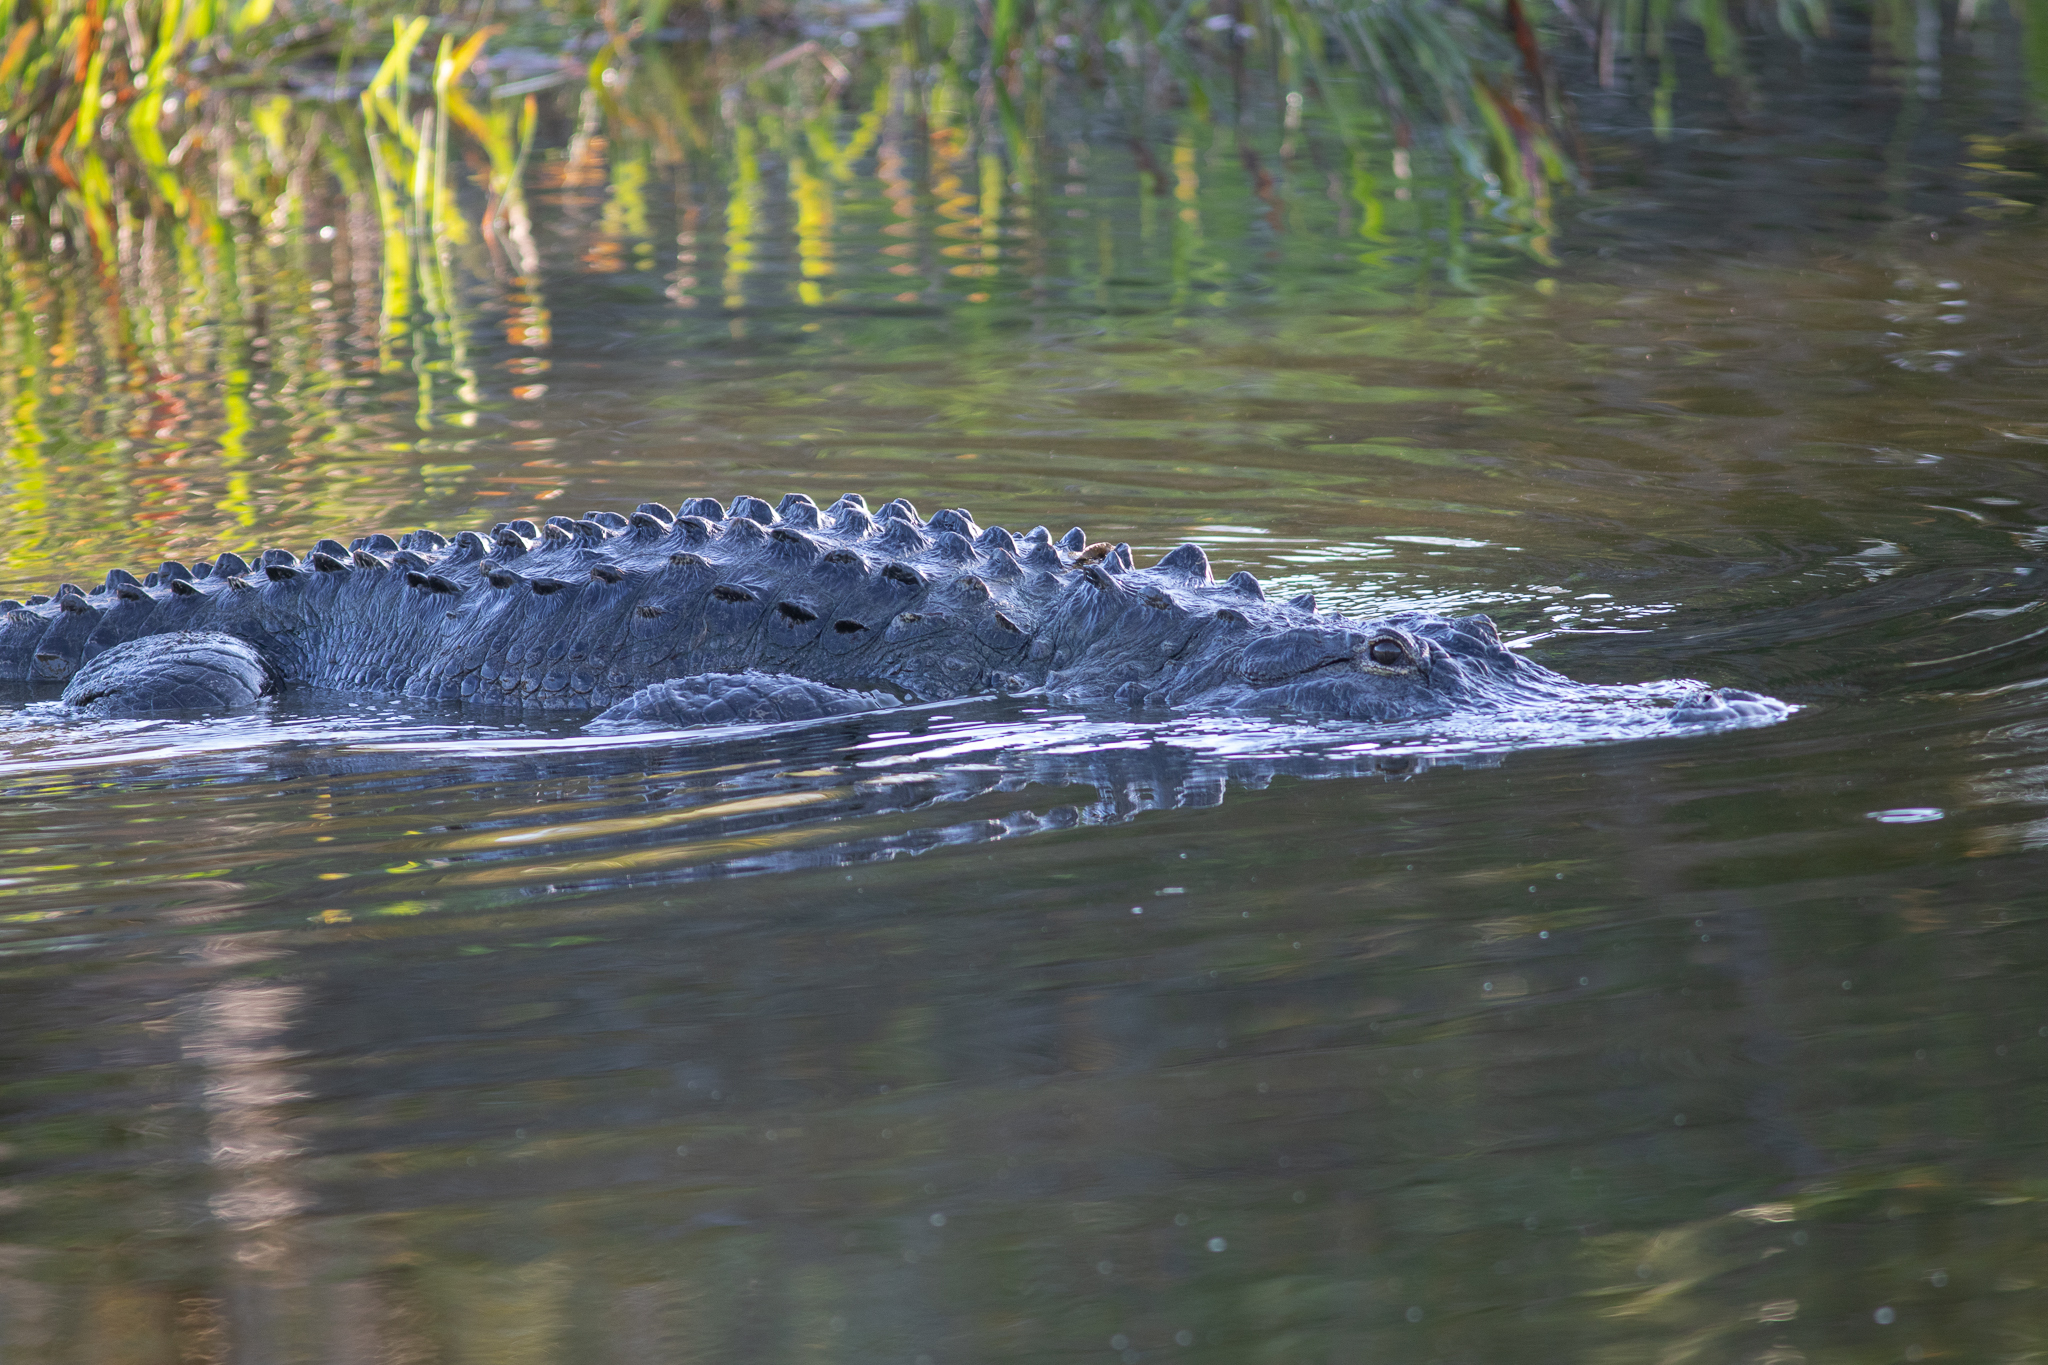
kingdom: Animalia
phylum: Chordata
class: Crocodylia
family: Alligatoridae
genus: Alligator
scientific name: Alligator mississippiensis
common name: American alligator
